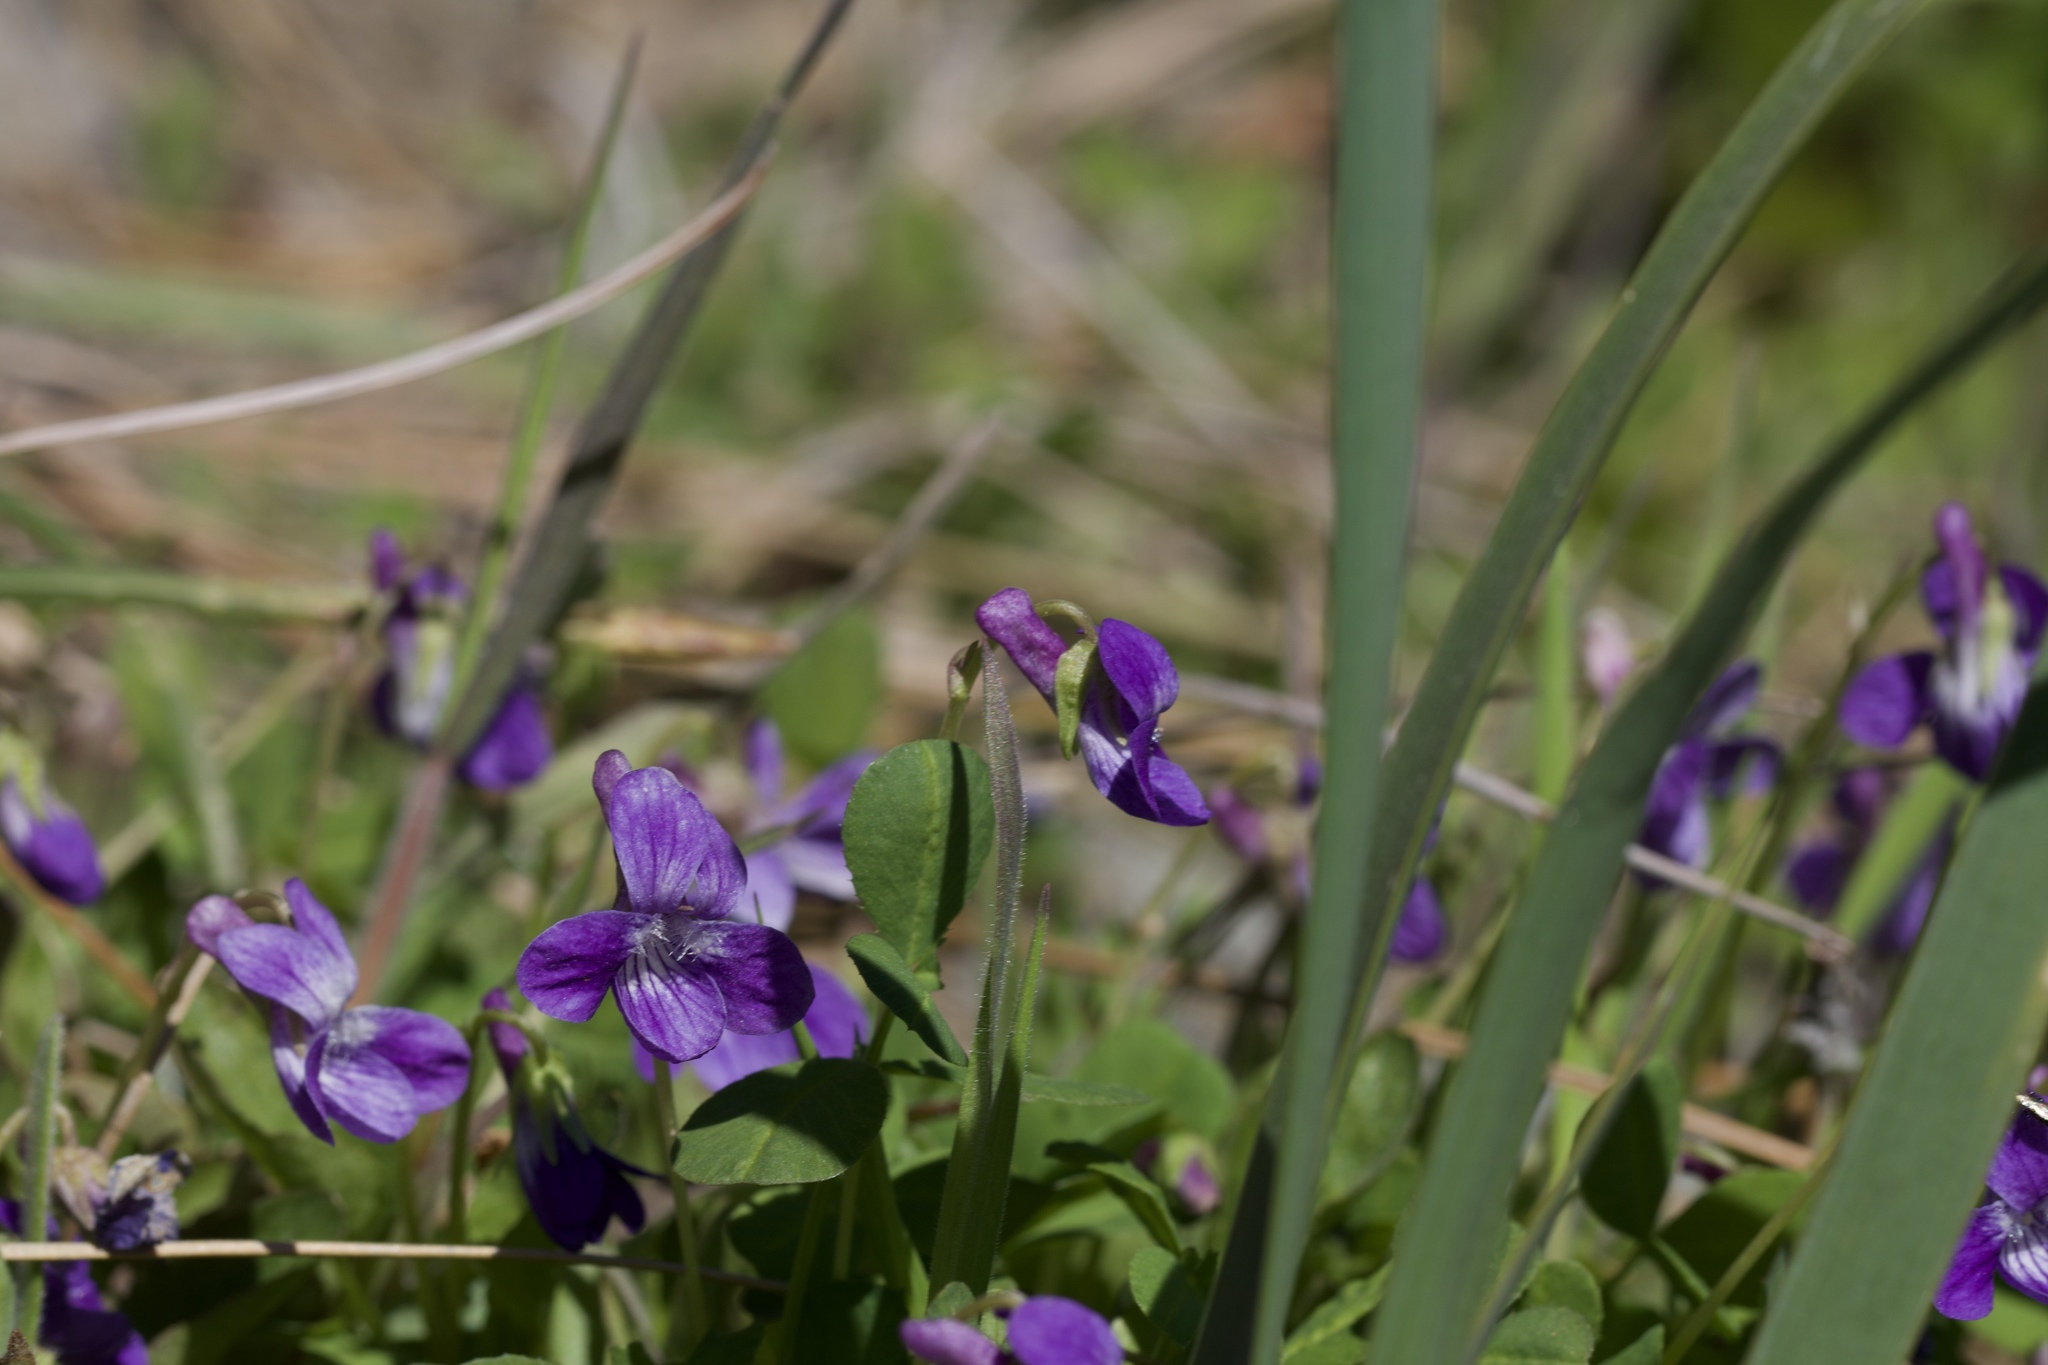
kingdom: Plantae
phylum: Tracheophyta
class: Magnoliopsida
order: Malpighiales
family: Violaceae
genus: Viola
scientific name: Viola adunca
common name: Sand violet
